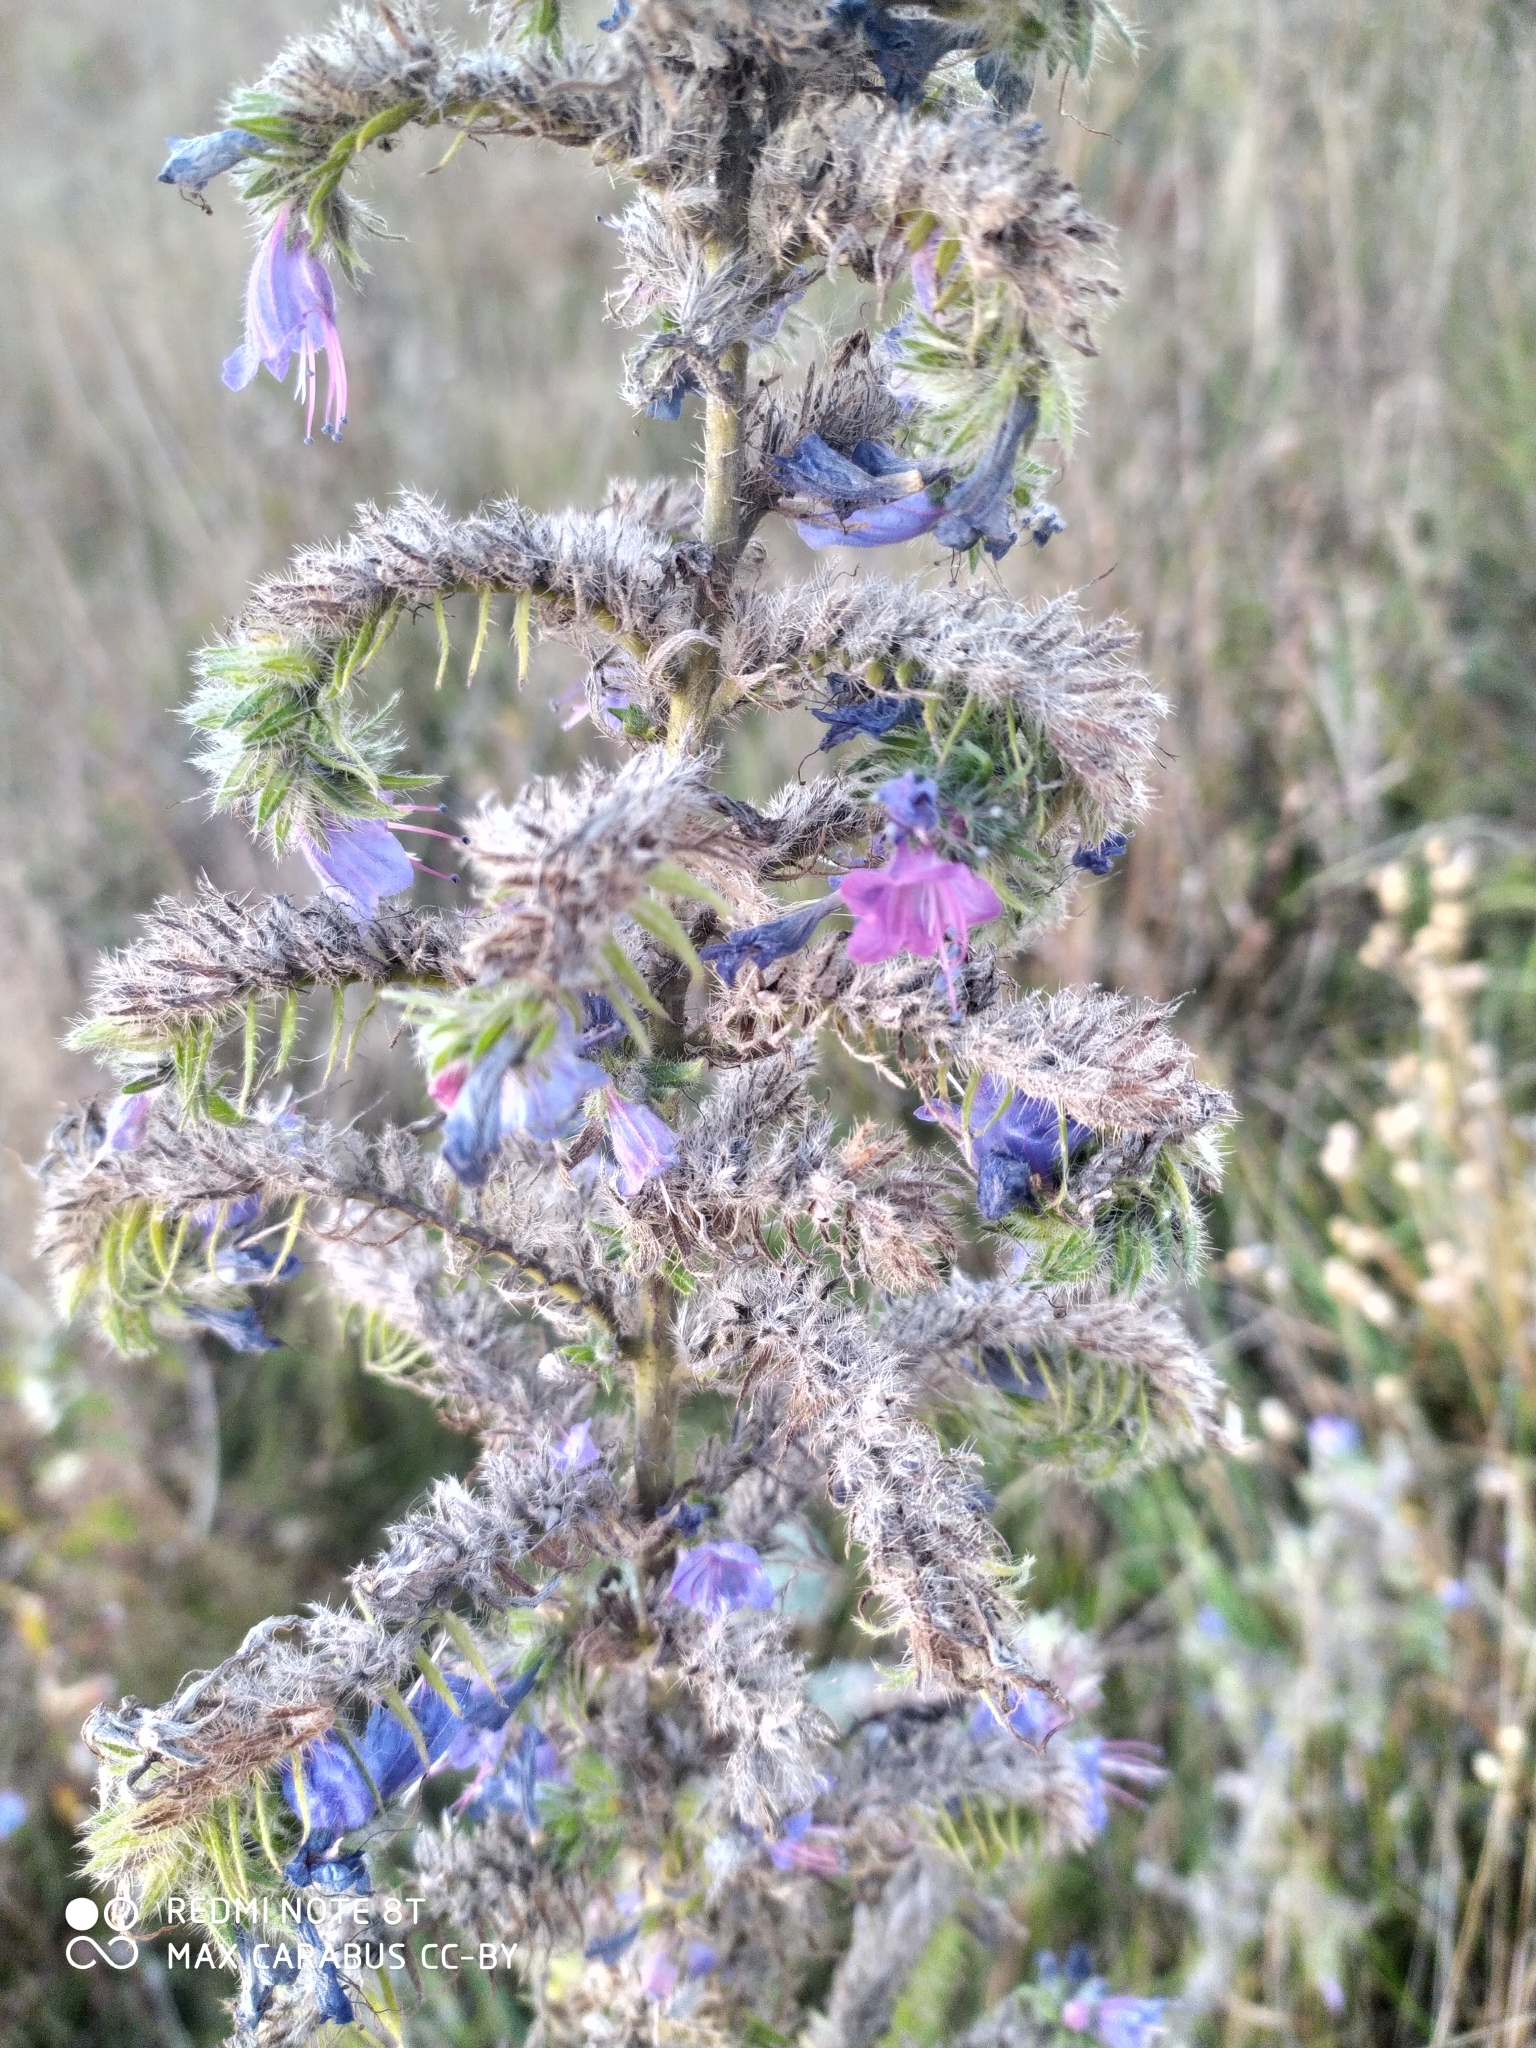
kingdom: Plantae
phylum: Tracheophyta
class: Magnoliopsida
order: Boraginales
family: Boraginaceae
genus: Echium
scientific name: Echium vulgare
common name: Common viper's bugloss
